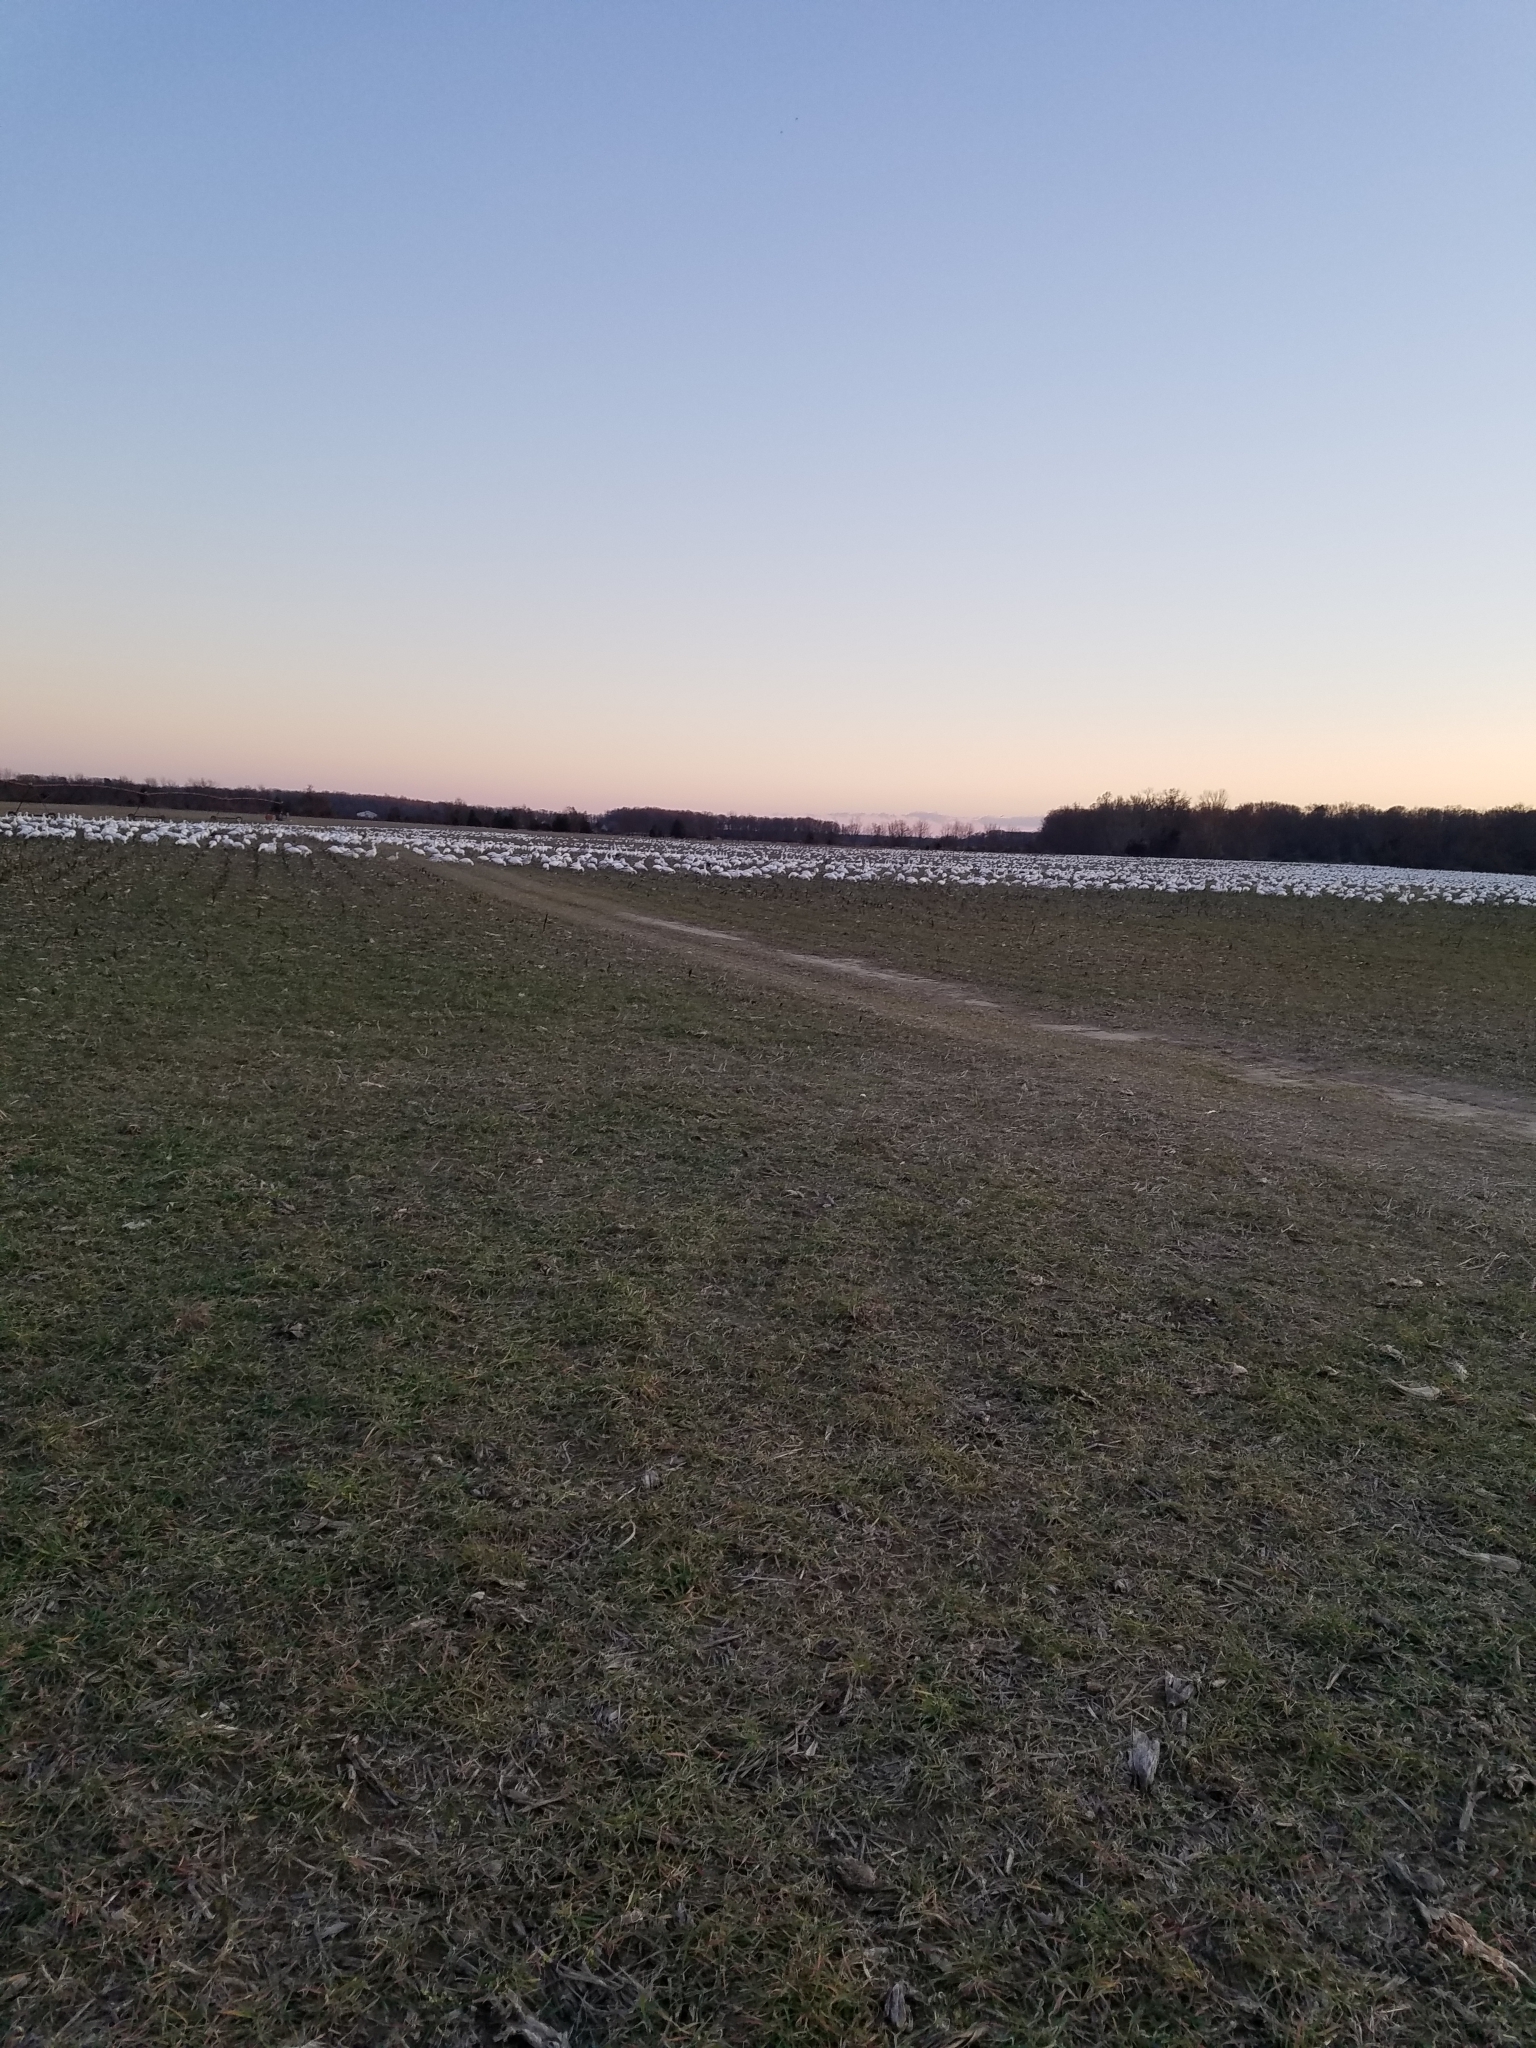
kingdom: Animalia
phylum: Chordata
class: Aves
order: Anseriformes
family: Anatidae
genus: Anser
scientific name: Anser caerulescens
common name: Snow goose
